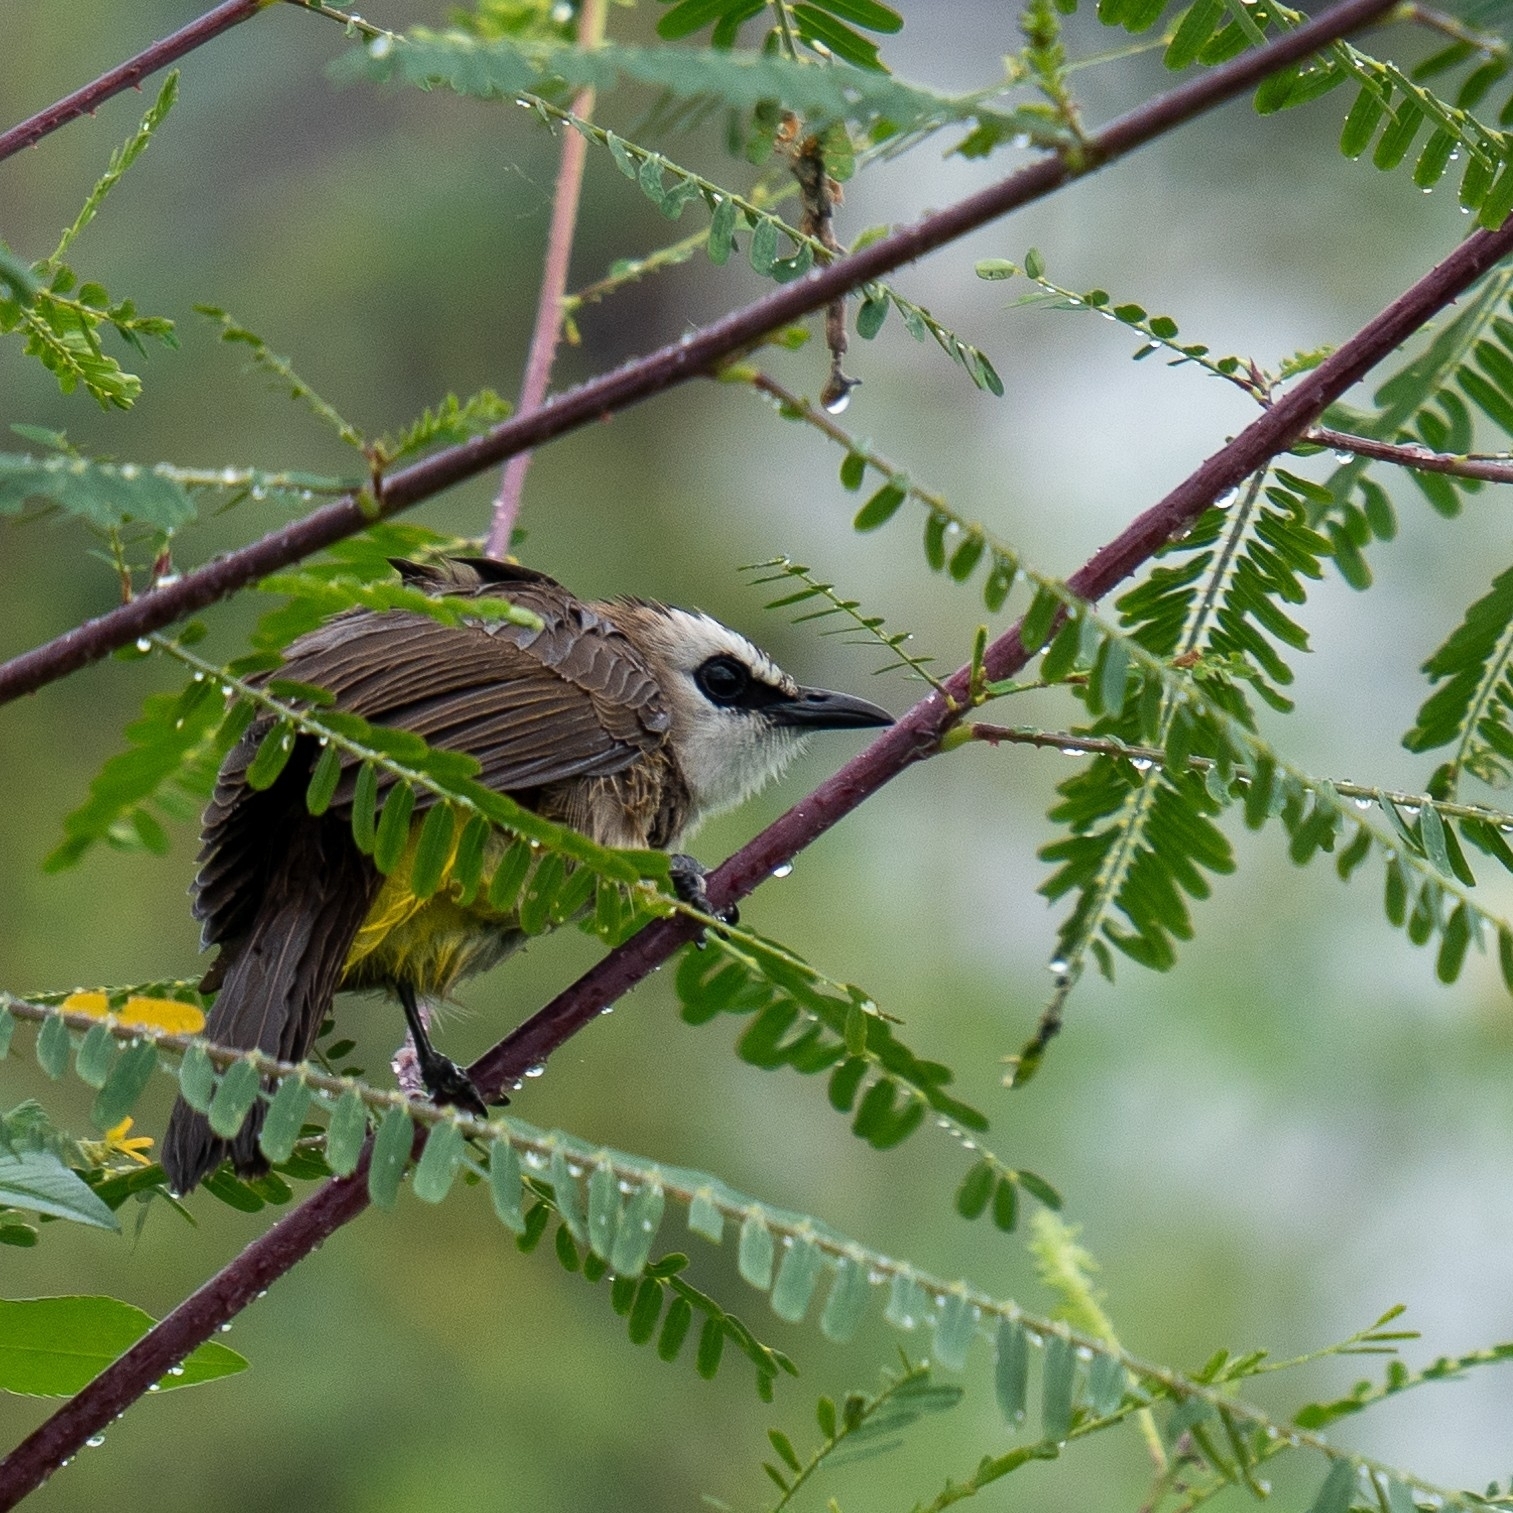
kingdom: Animalia
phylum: Chordata
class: Aves
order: Passeriformes
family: Pycnonotidae
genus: Pycnonotus
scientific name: Pycnonotus goiavier
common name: Yellow-vented bulbul
